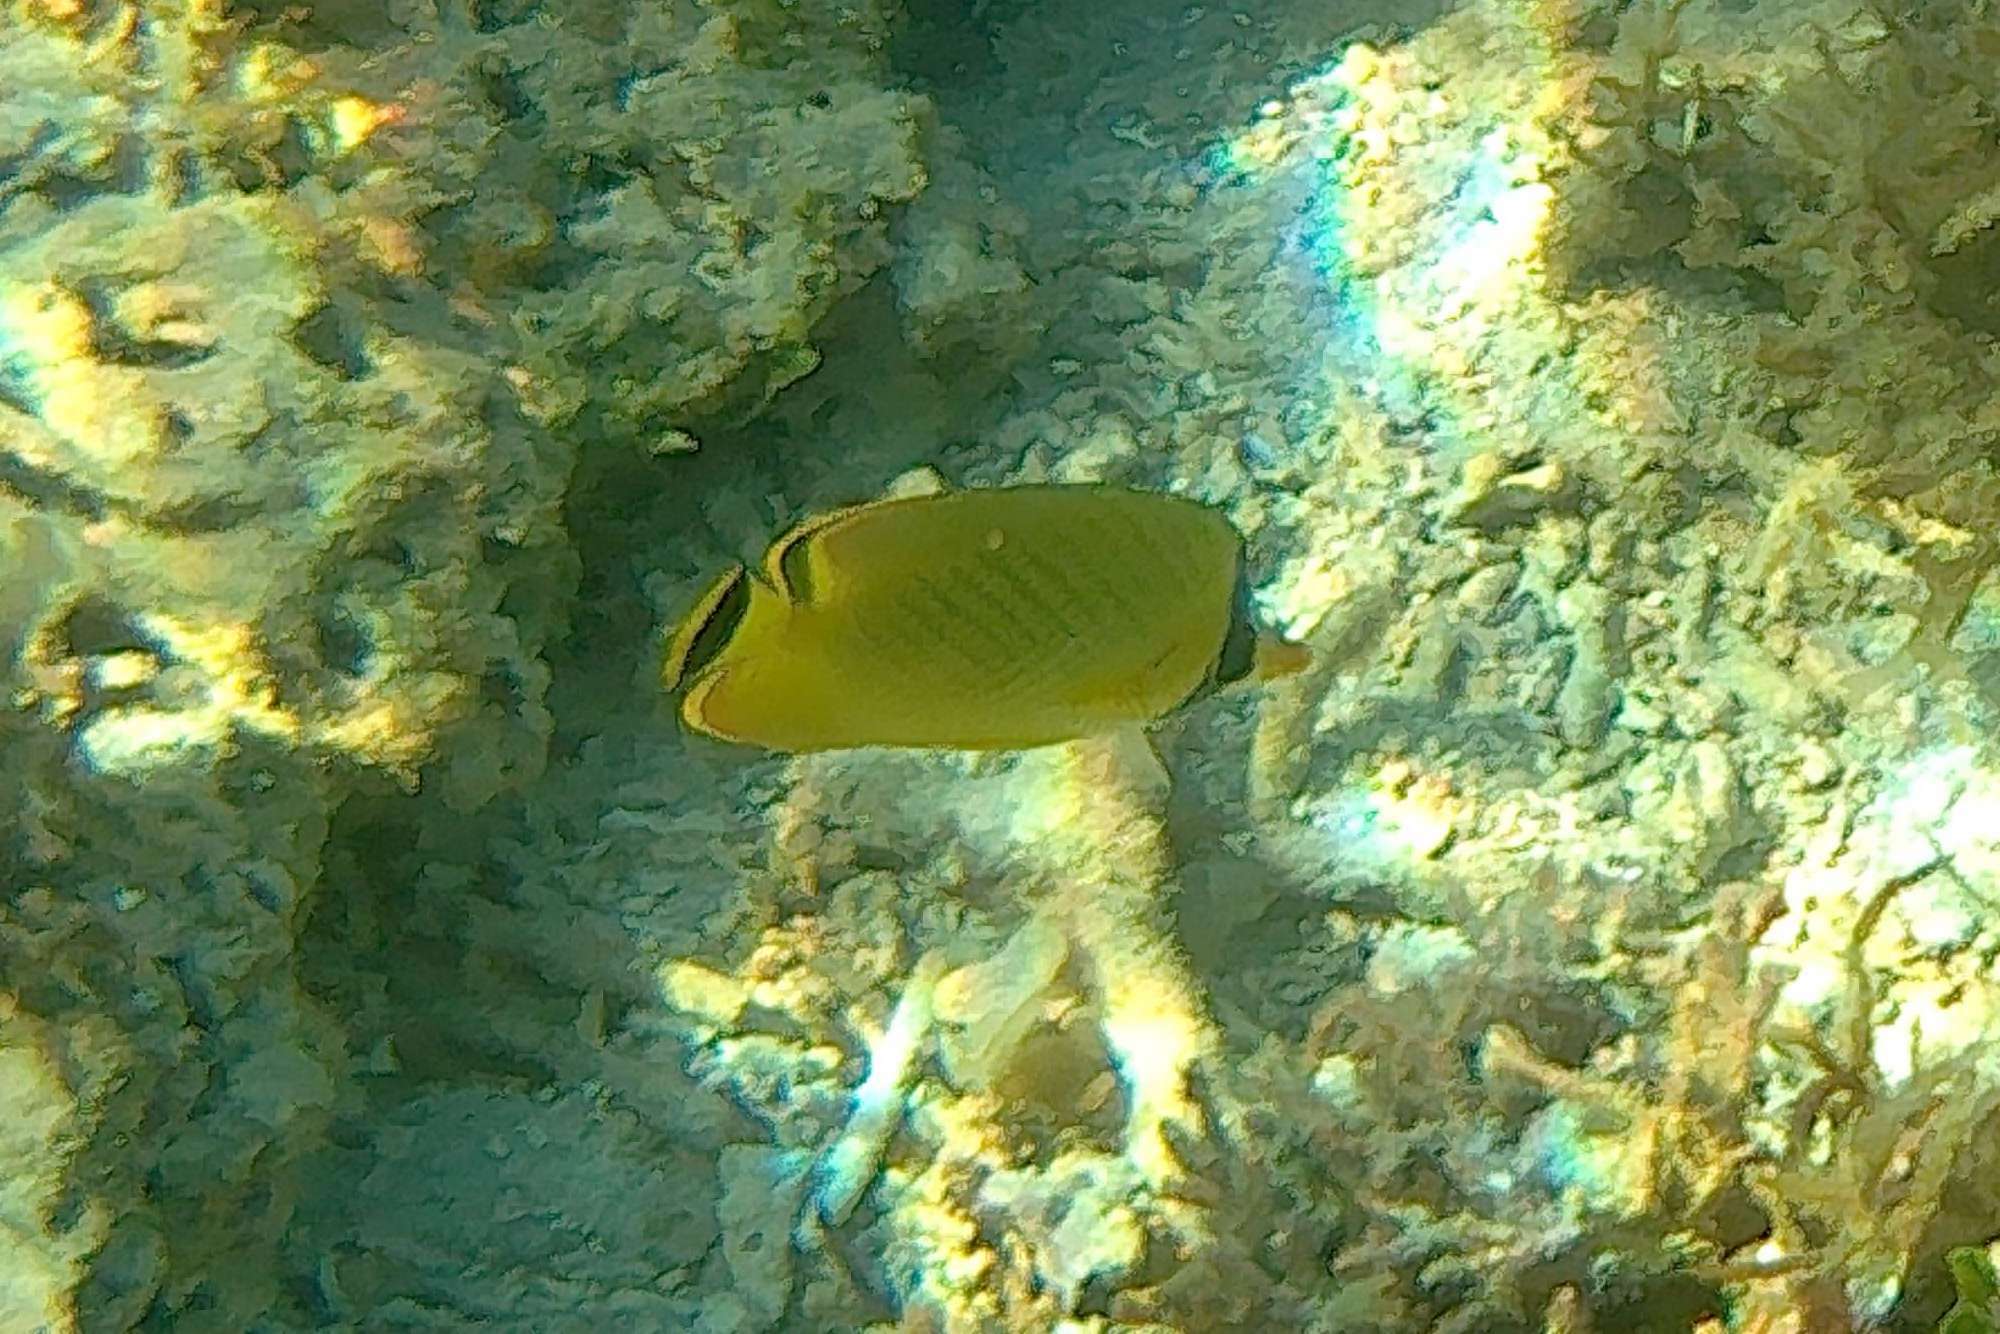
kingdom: Animalia
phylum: Chordata
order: Perciformes
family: Chaetodontidae
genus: Chaetodon
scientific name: Chaetodon rafflesii
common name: Latticed butterflyfish
